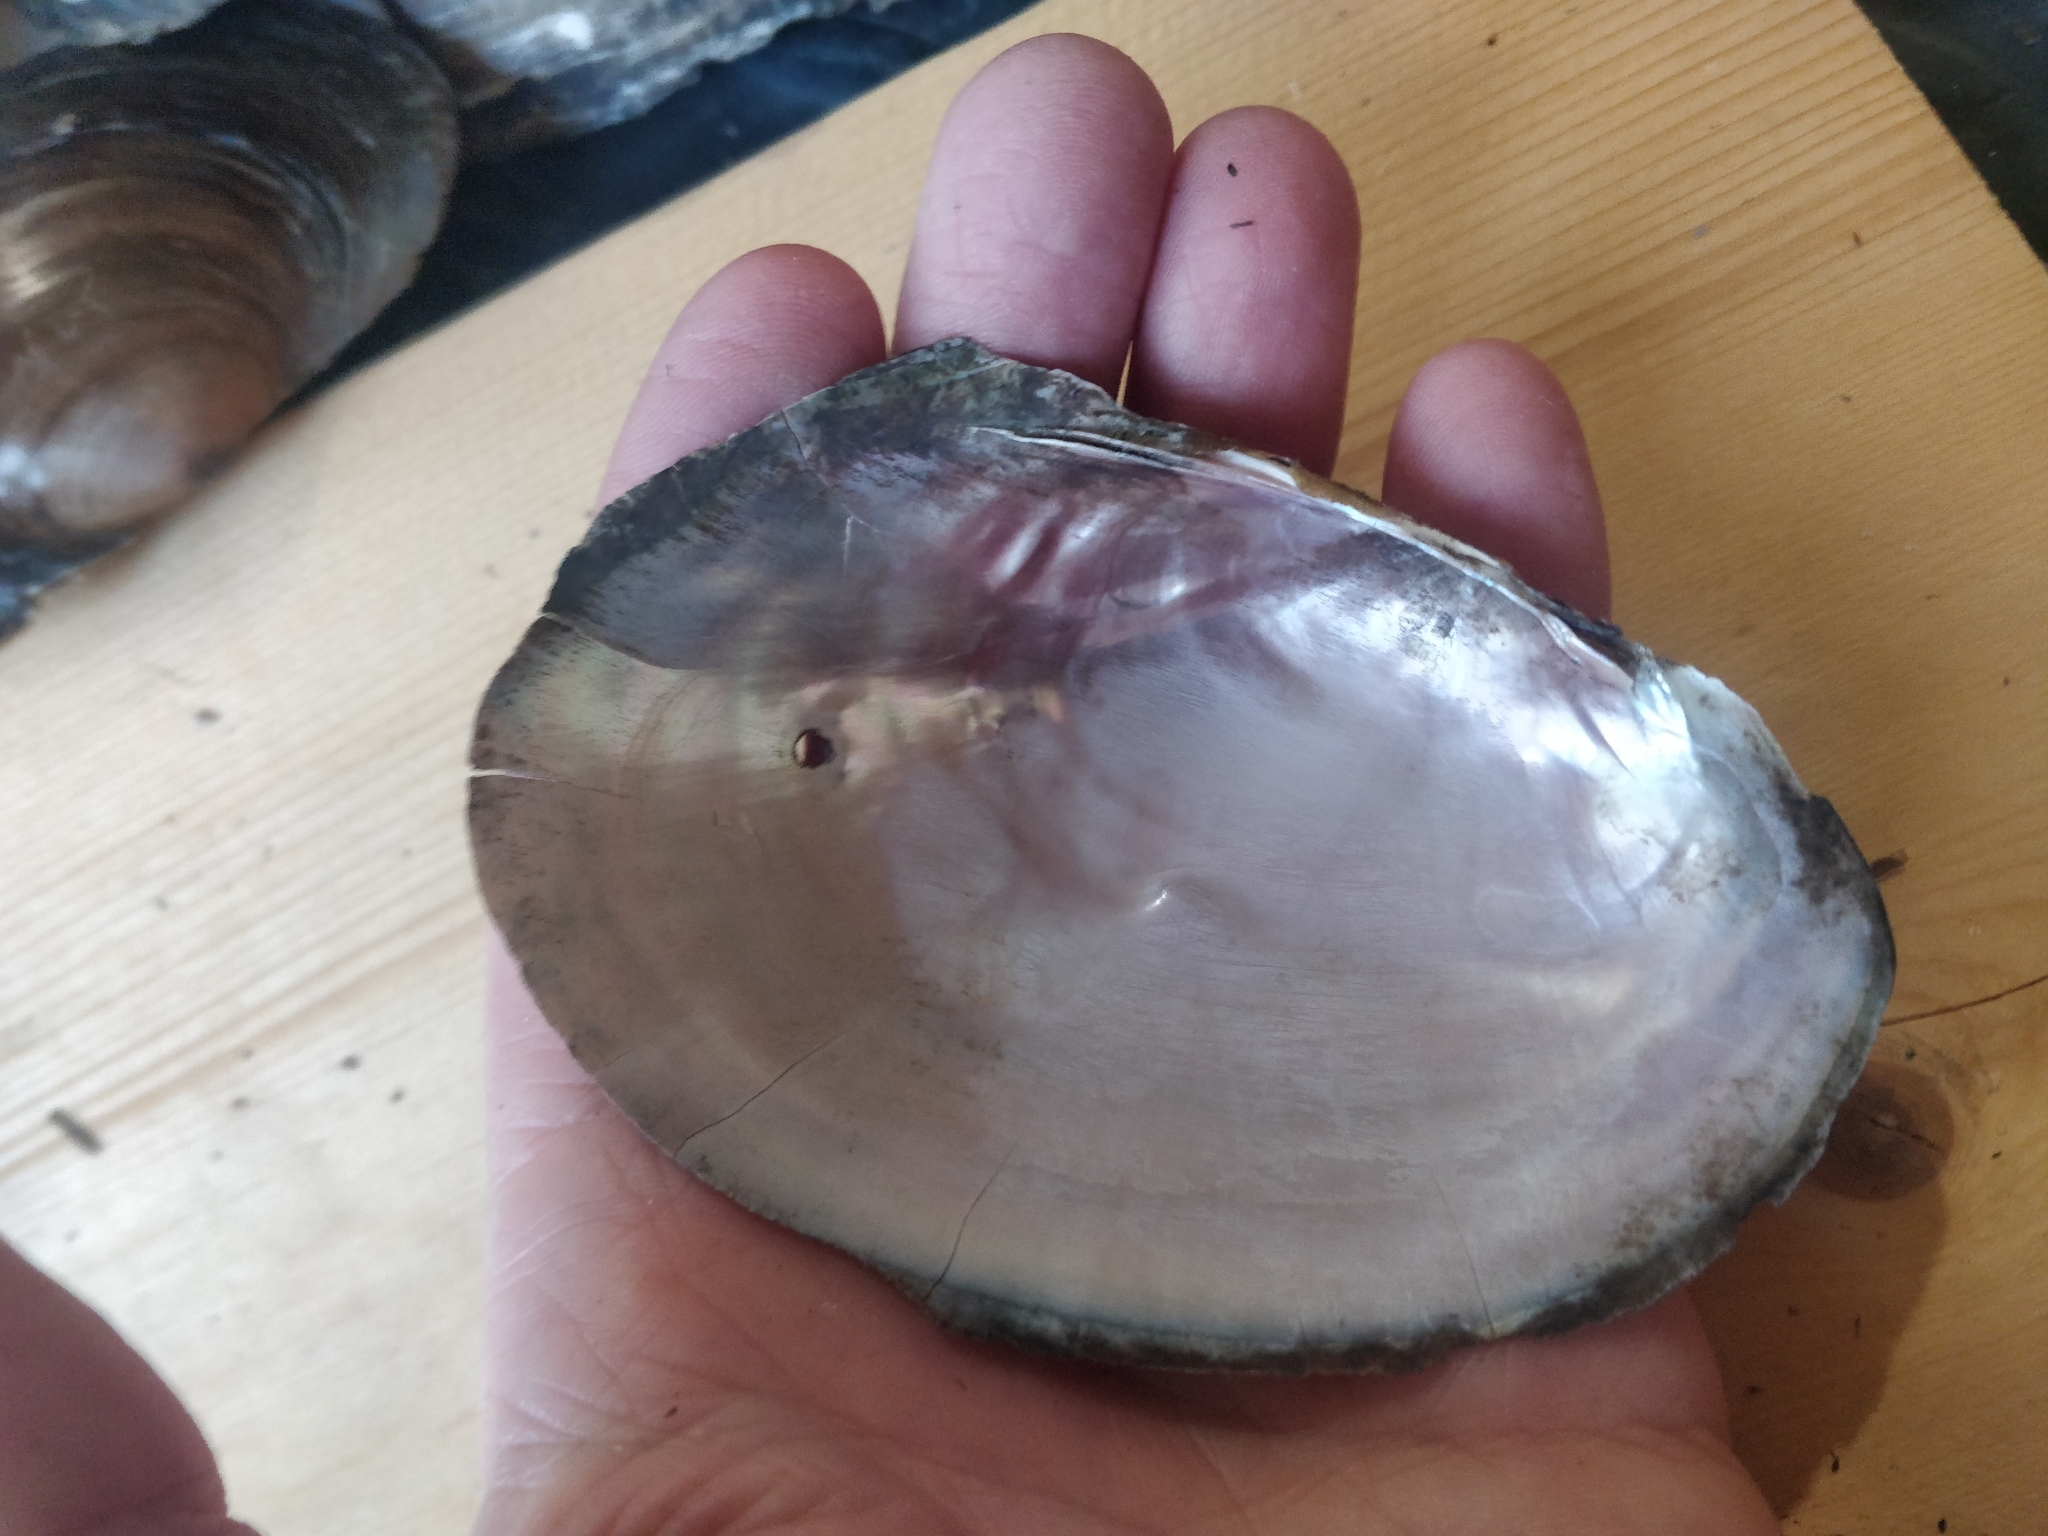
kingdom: Animalia
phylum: Mollusca
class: Bivalvia
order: Unionida
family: Unionidae
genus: Potamilus
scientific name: Potamilus ohiensis
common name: Pink papershell
